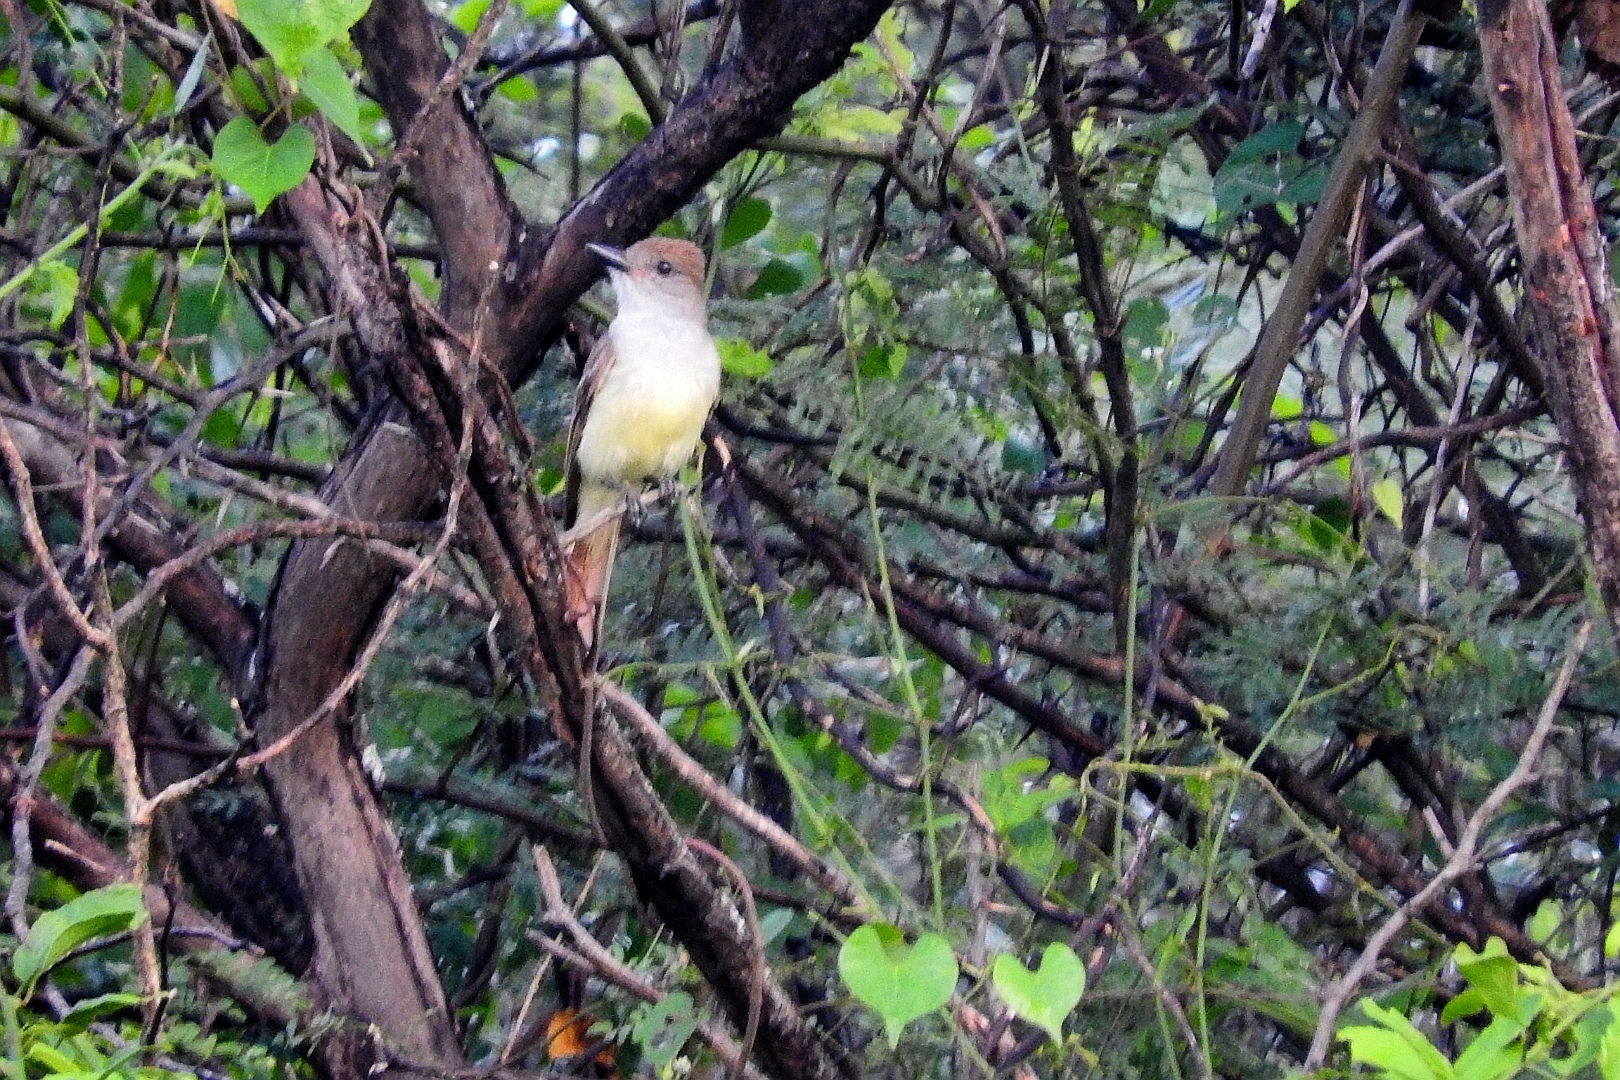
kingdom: Animalia
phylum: Chordata
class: Aves
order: Passeriformes
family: Tyrannidae
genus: Myiarchus
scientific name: Myiarchus tyrannulus
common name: Brown-crested flycatcher
